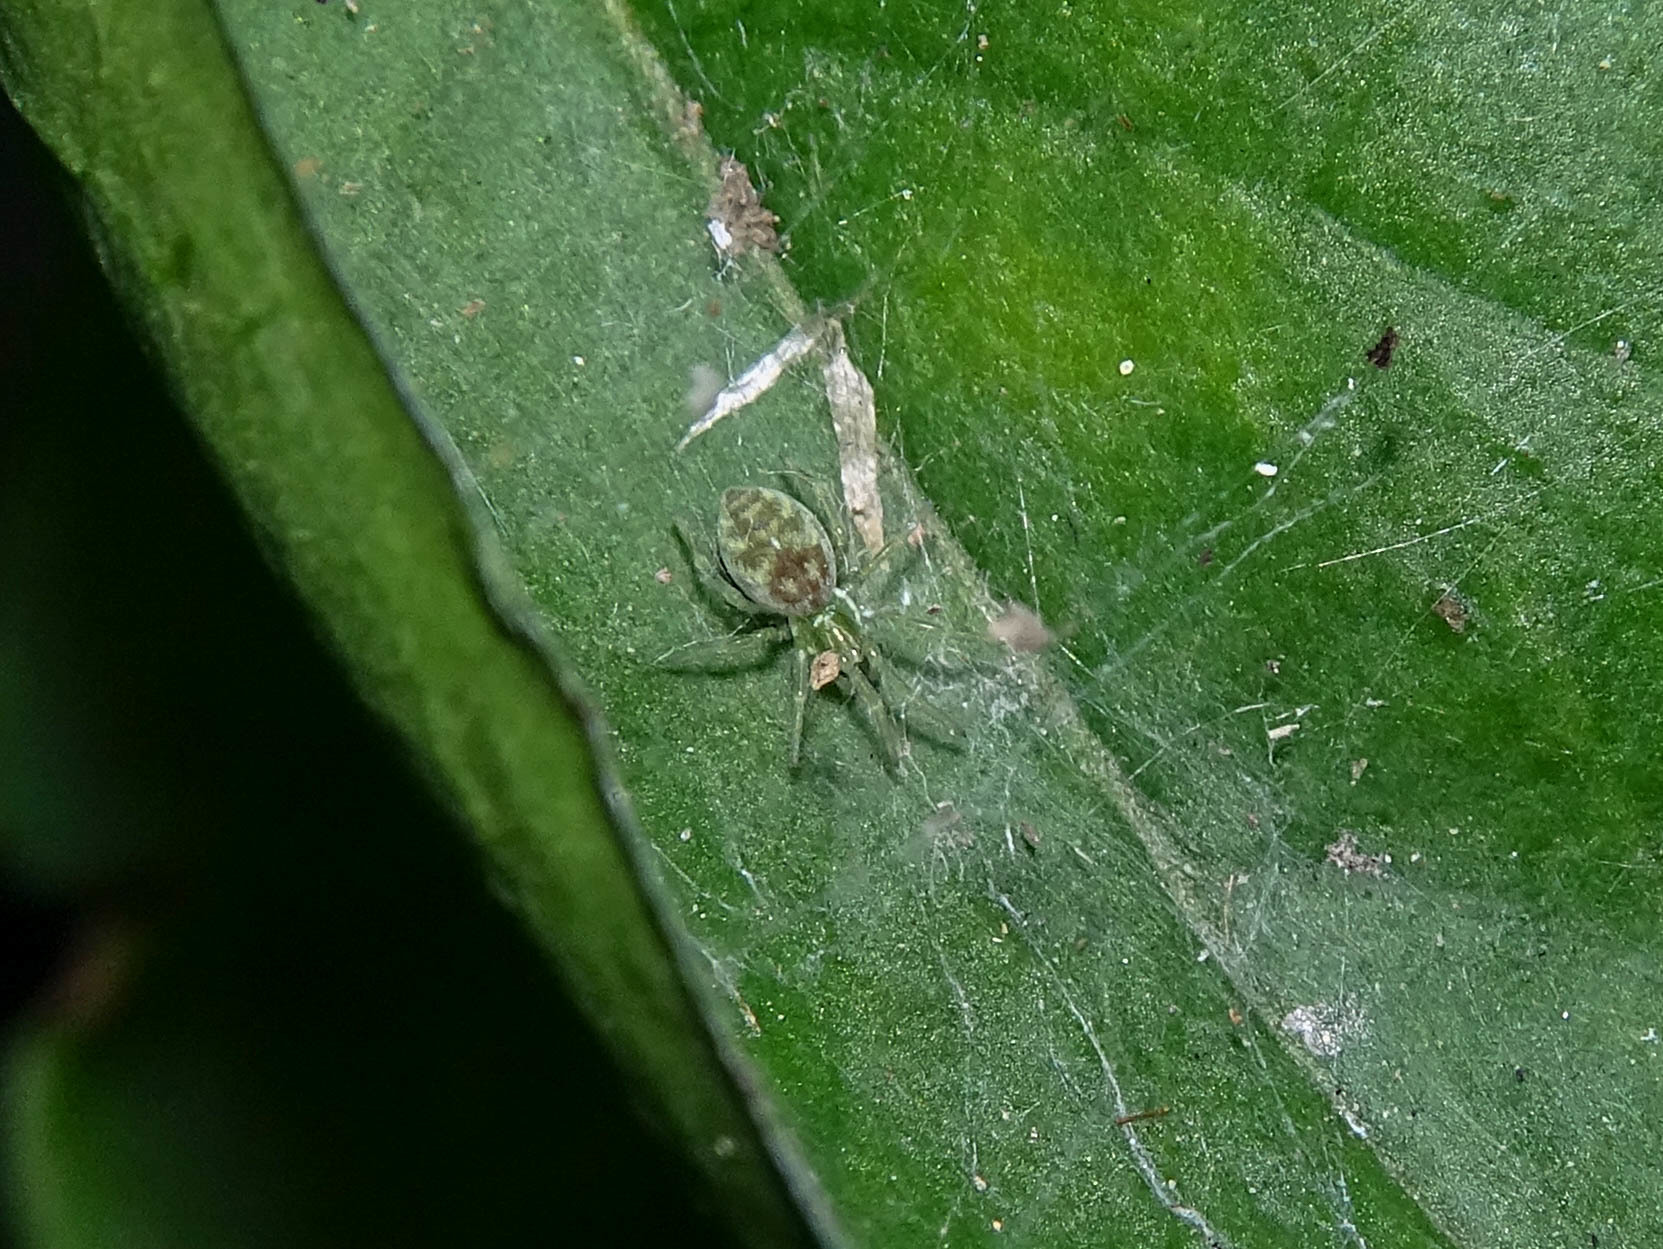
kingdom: Animalia
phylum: Arthropoda
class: Arachnida
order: Araneae
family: Dictynidae
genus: Nigma
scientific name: Nigma walckenaeri
